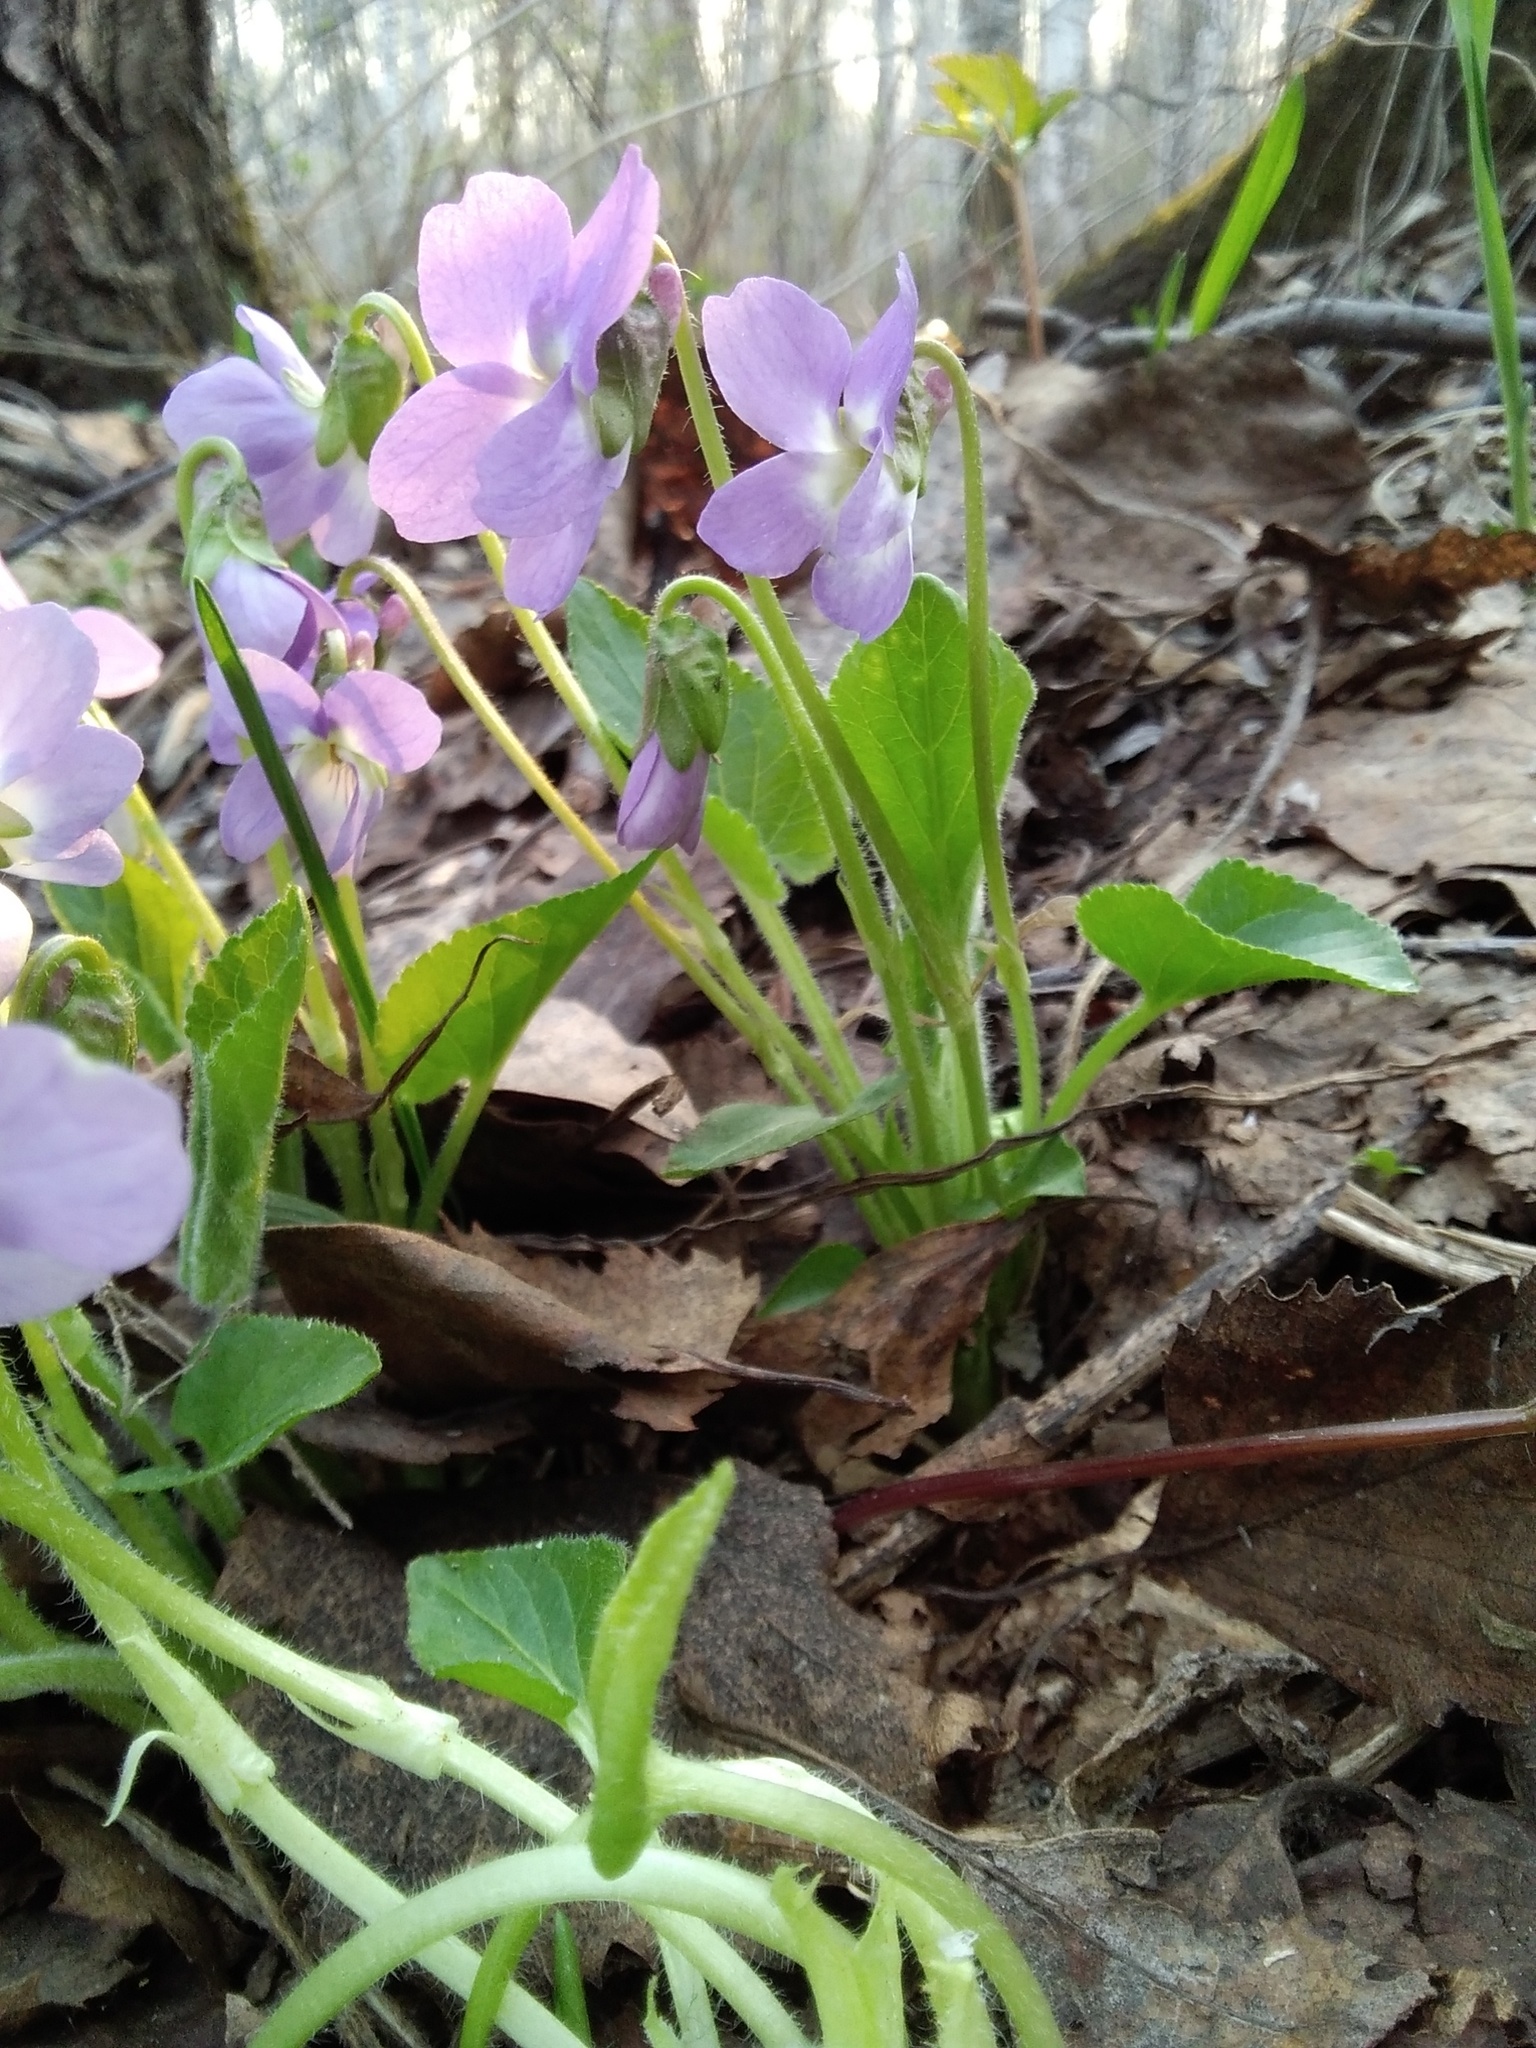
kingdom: Plantae
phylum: Tracheophyta
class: Magnoliopsida
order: Malpighiales
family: Violaceae
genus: Viola
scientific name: Viola hirta
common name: Hairy violet
